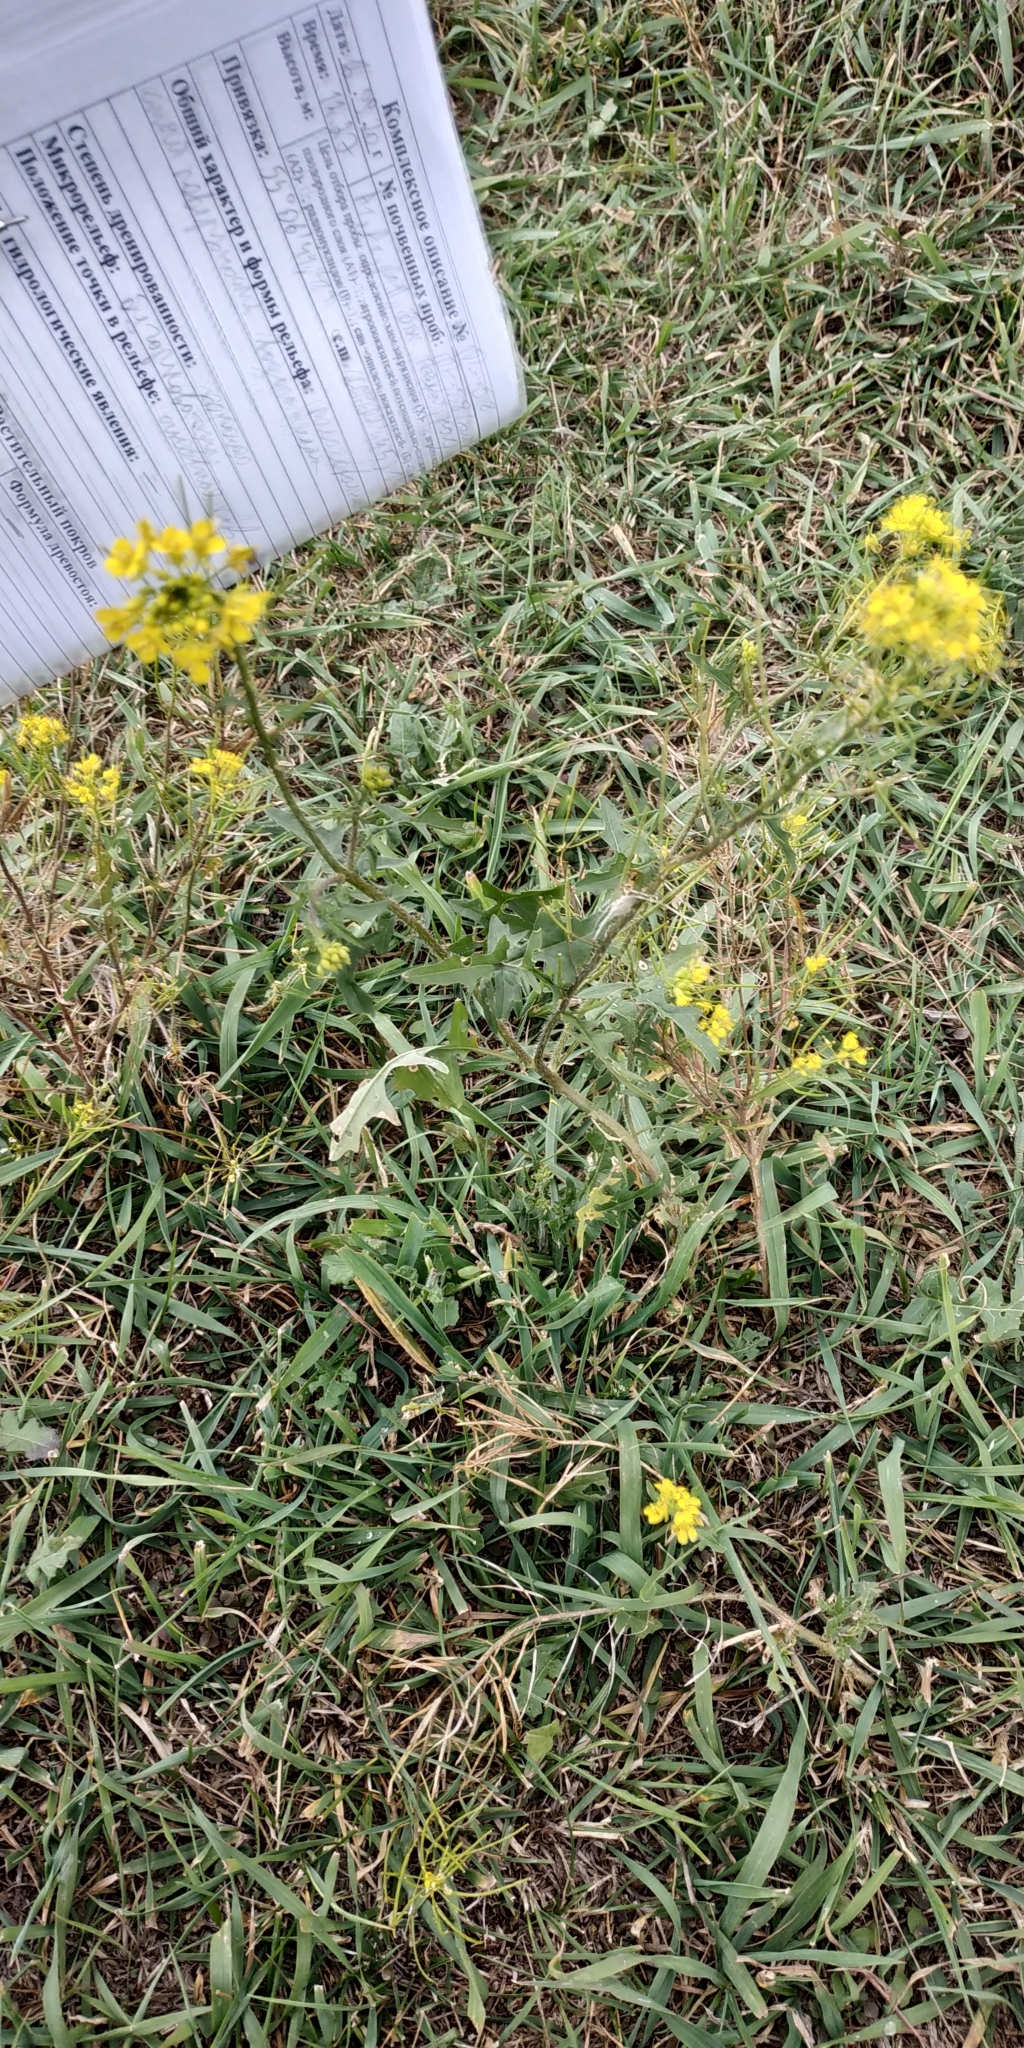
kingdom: Plantae
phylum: Tracheophyta
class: Magnoliopsida
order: Brassicales
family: Brassicaceae
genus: Sisymbrium
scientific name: Sisymbrium loeselii
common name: False london-rocket
